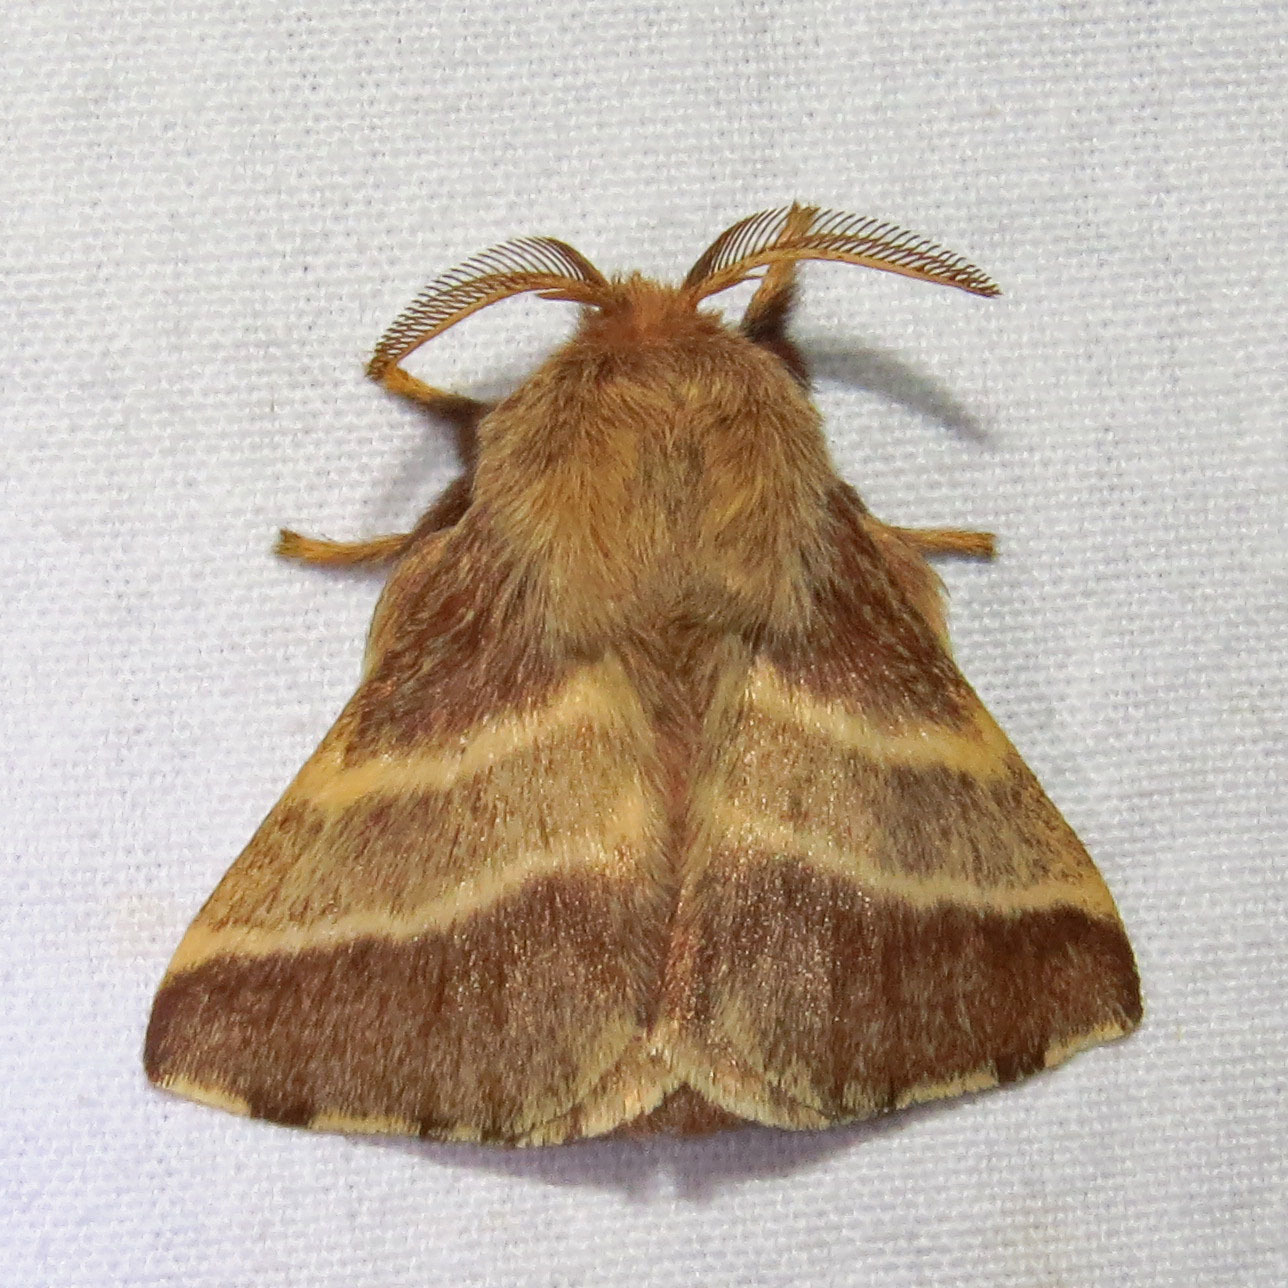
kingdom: Animalia
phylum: Arthropoda
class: Insecta
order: Lepidoptera
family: Lasiocampidae
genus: Malacosoma
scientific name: Malacosoma americana
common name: Eastern tent caterpillar moth
